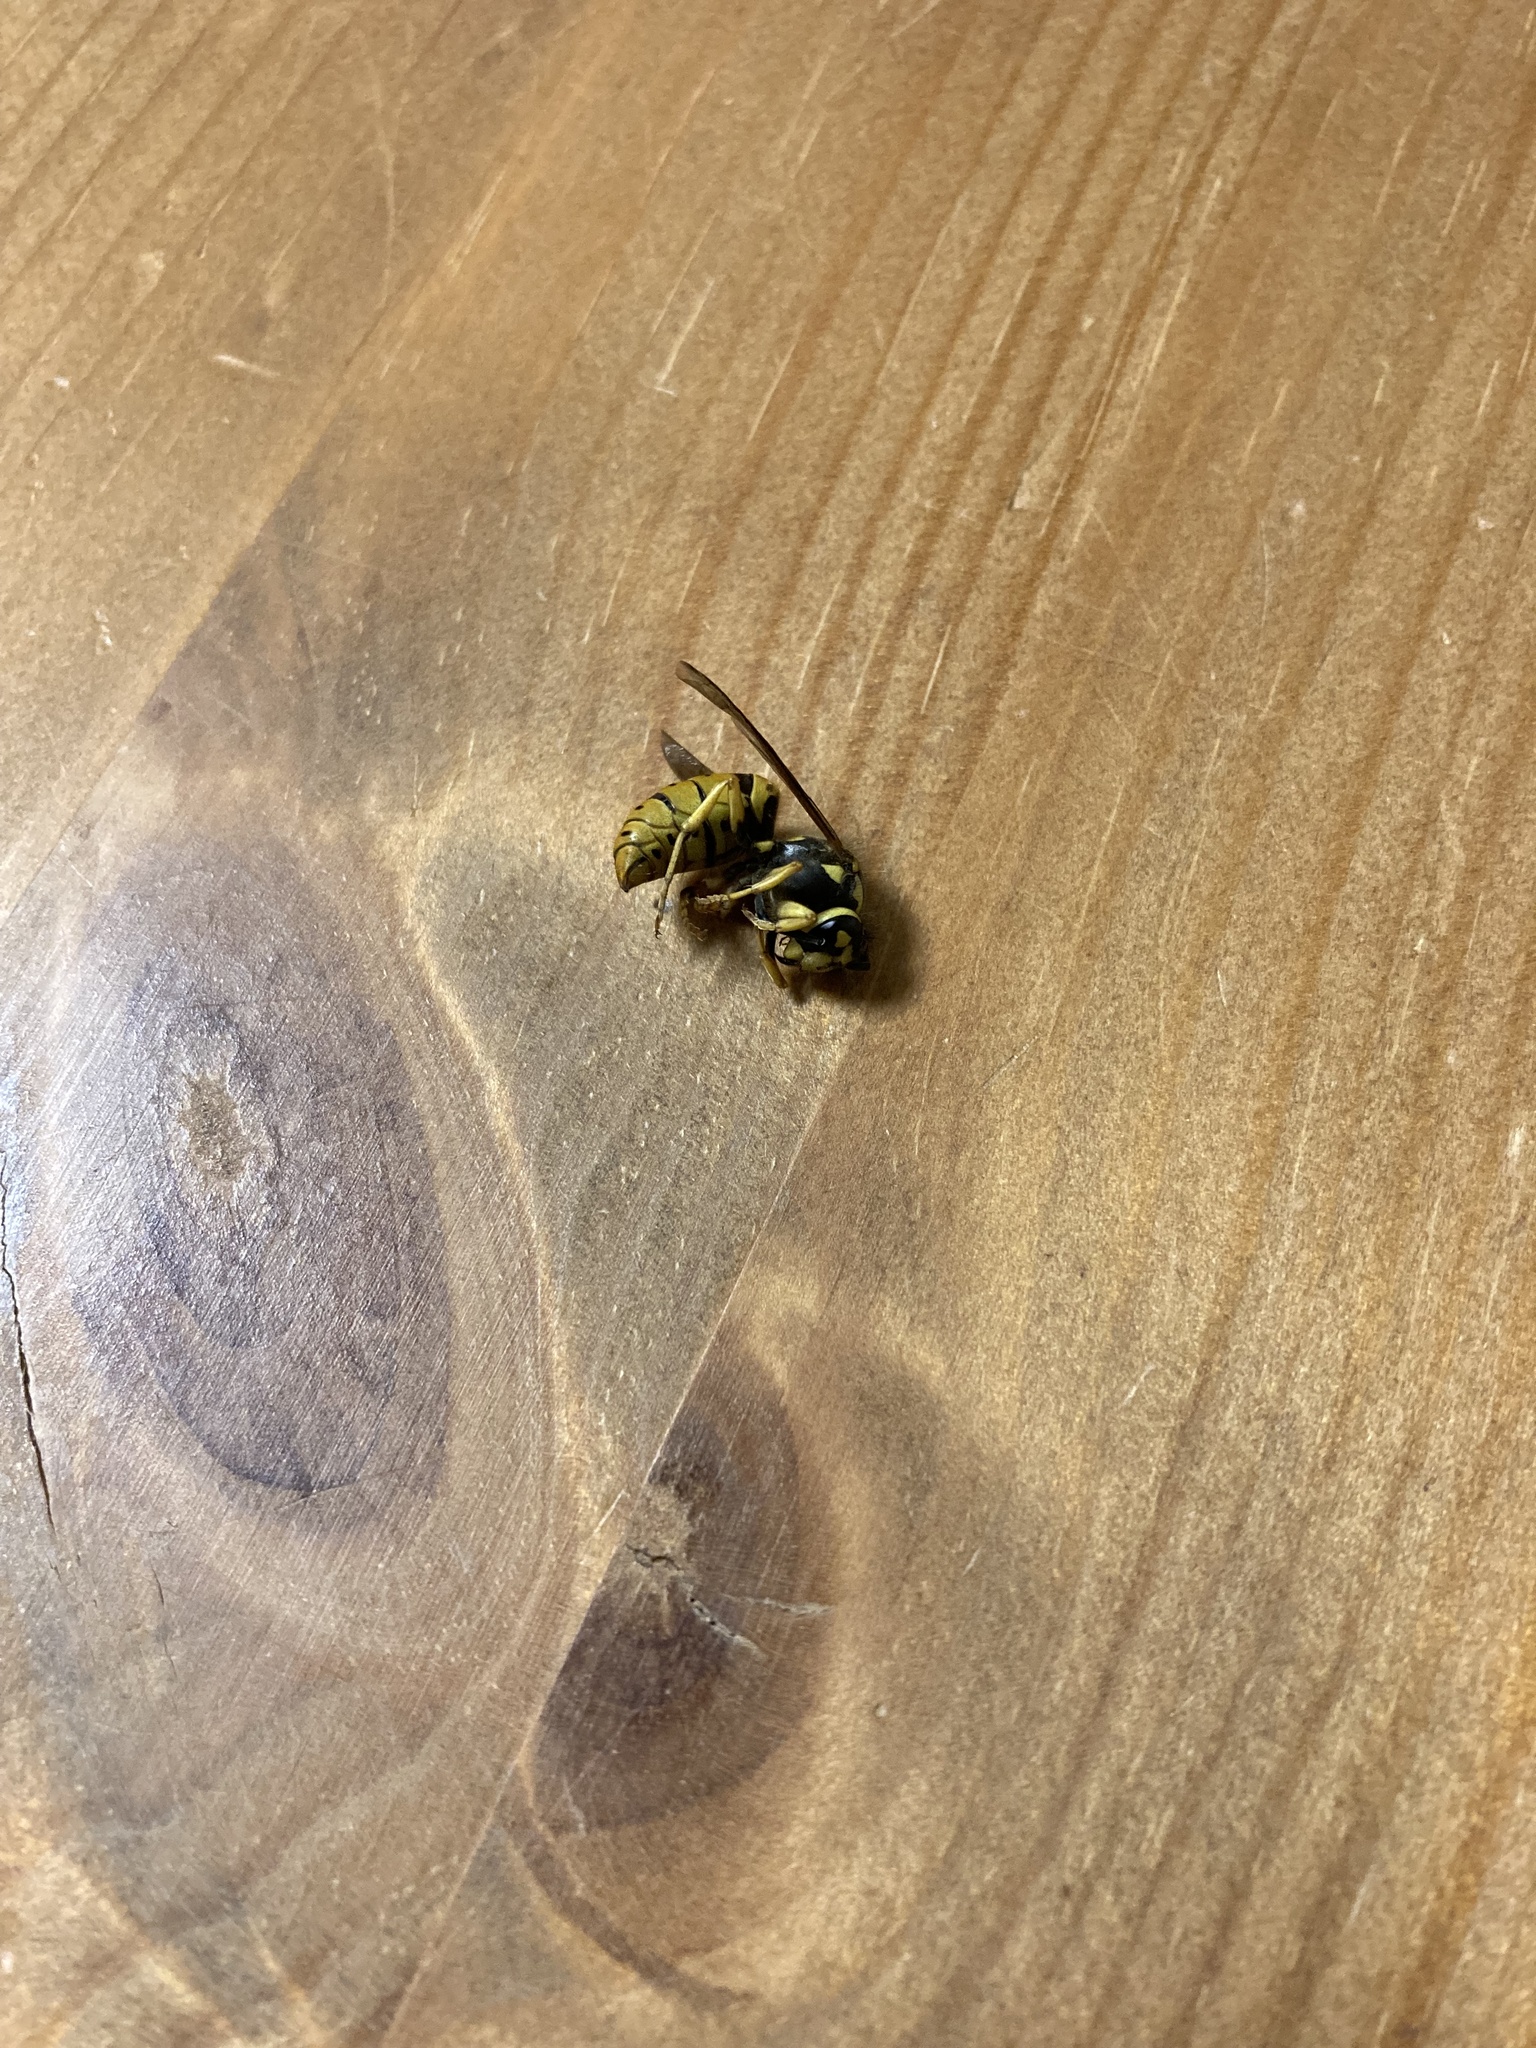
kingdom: Animalia
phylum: Arthropoda
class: Insecta
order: Hymenoptera
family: Vespidae
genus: Vespula
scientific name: Vespula maculifrons
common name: Eastern yellowjacket
